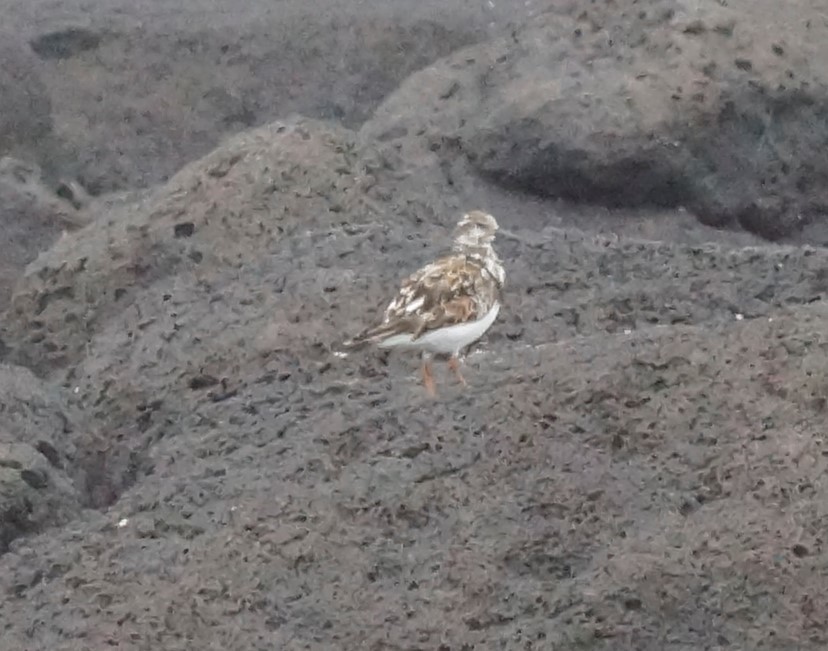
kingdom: Animalia
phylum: Chordata
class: Aves
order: Charadriiformes
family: Scolopacidae
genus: Arenaria
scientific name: Arenaria interpres
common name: Ruddy turnstone
